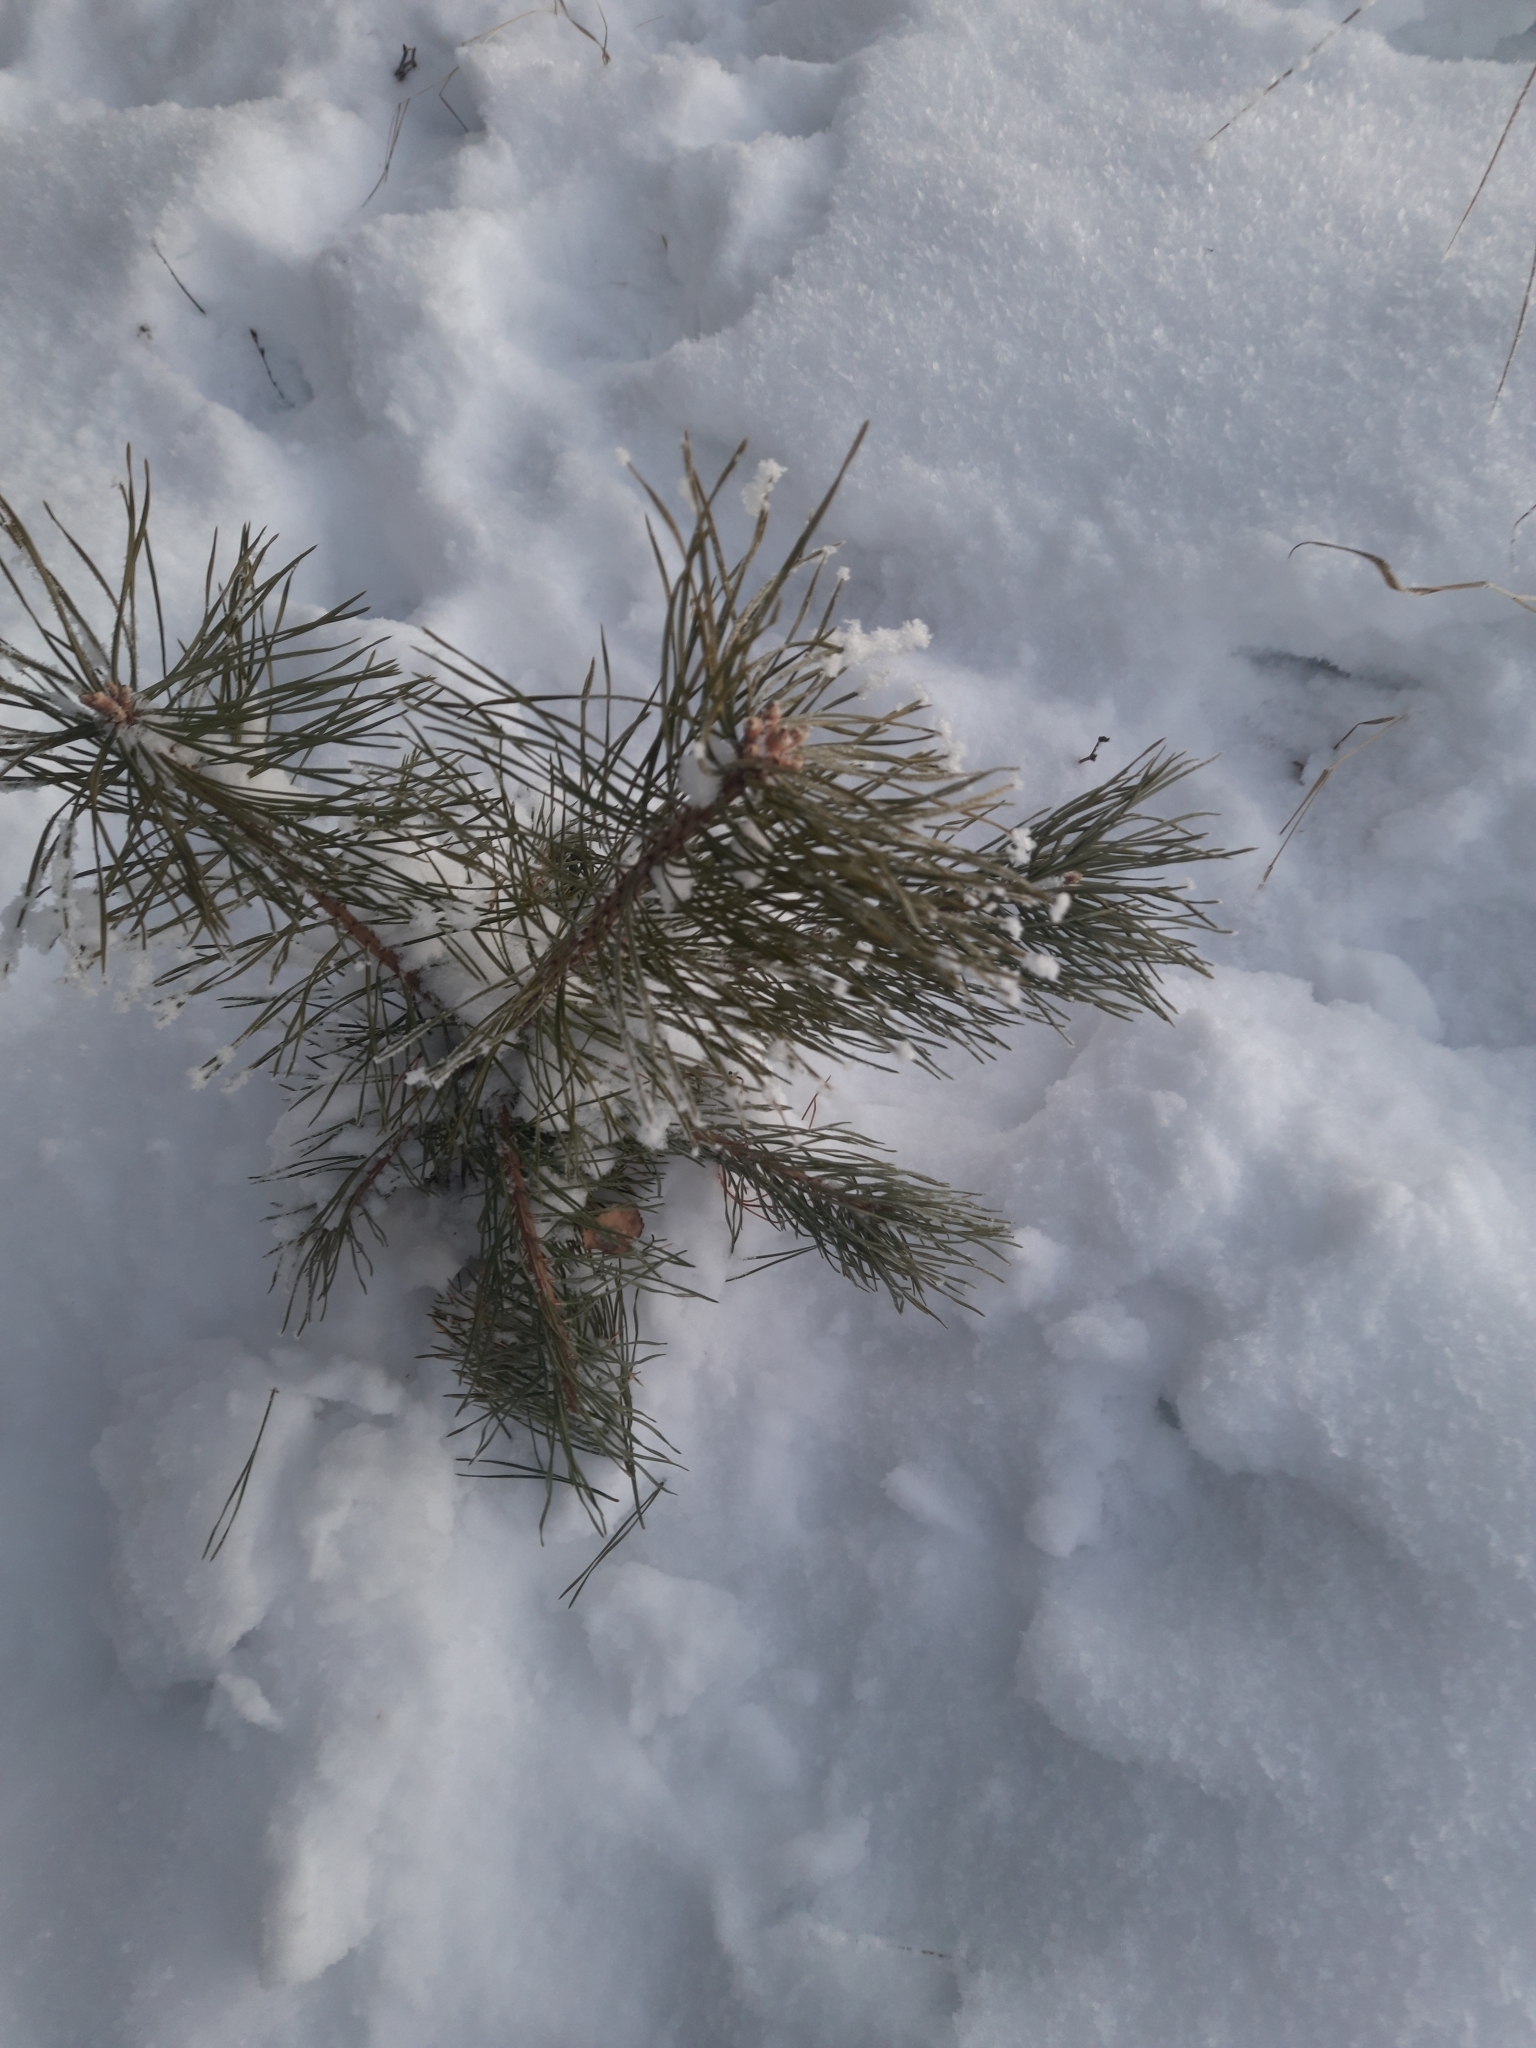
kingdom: Plantae
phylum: Tracheophyta
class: Pinopsida
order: Pinales
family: Pinaceae
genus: Pinus
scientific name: Pinus sylvestris
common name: Scots pine
